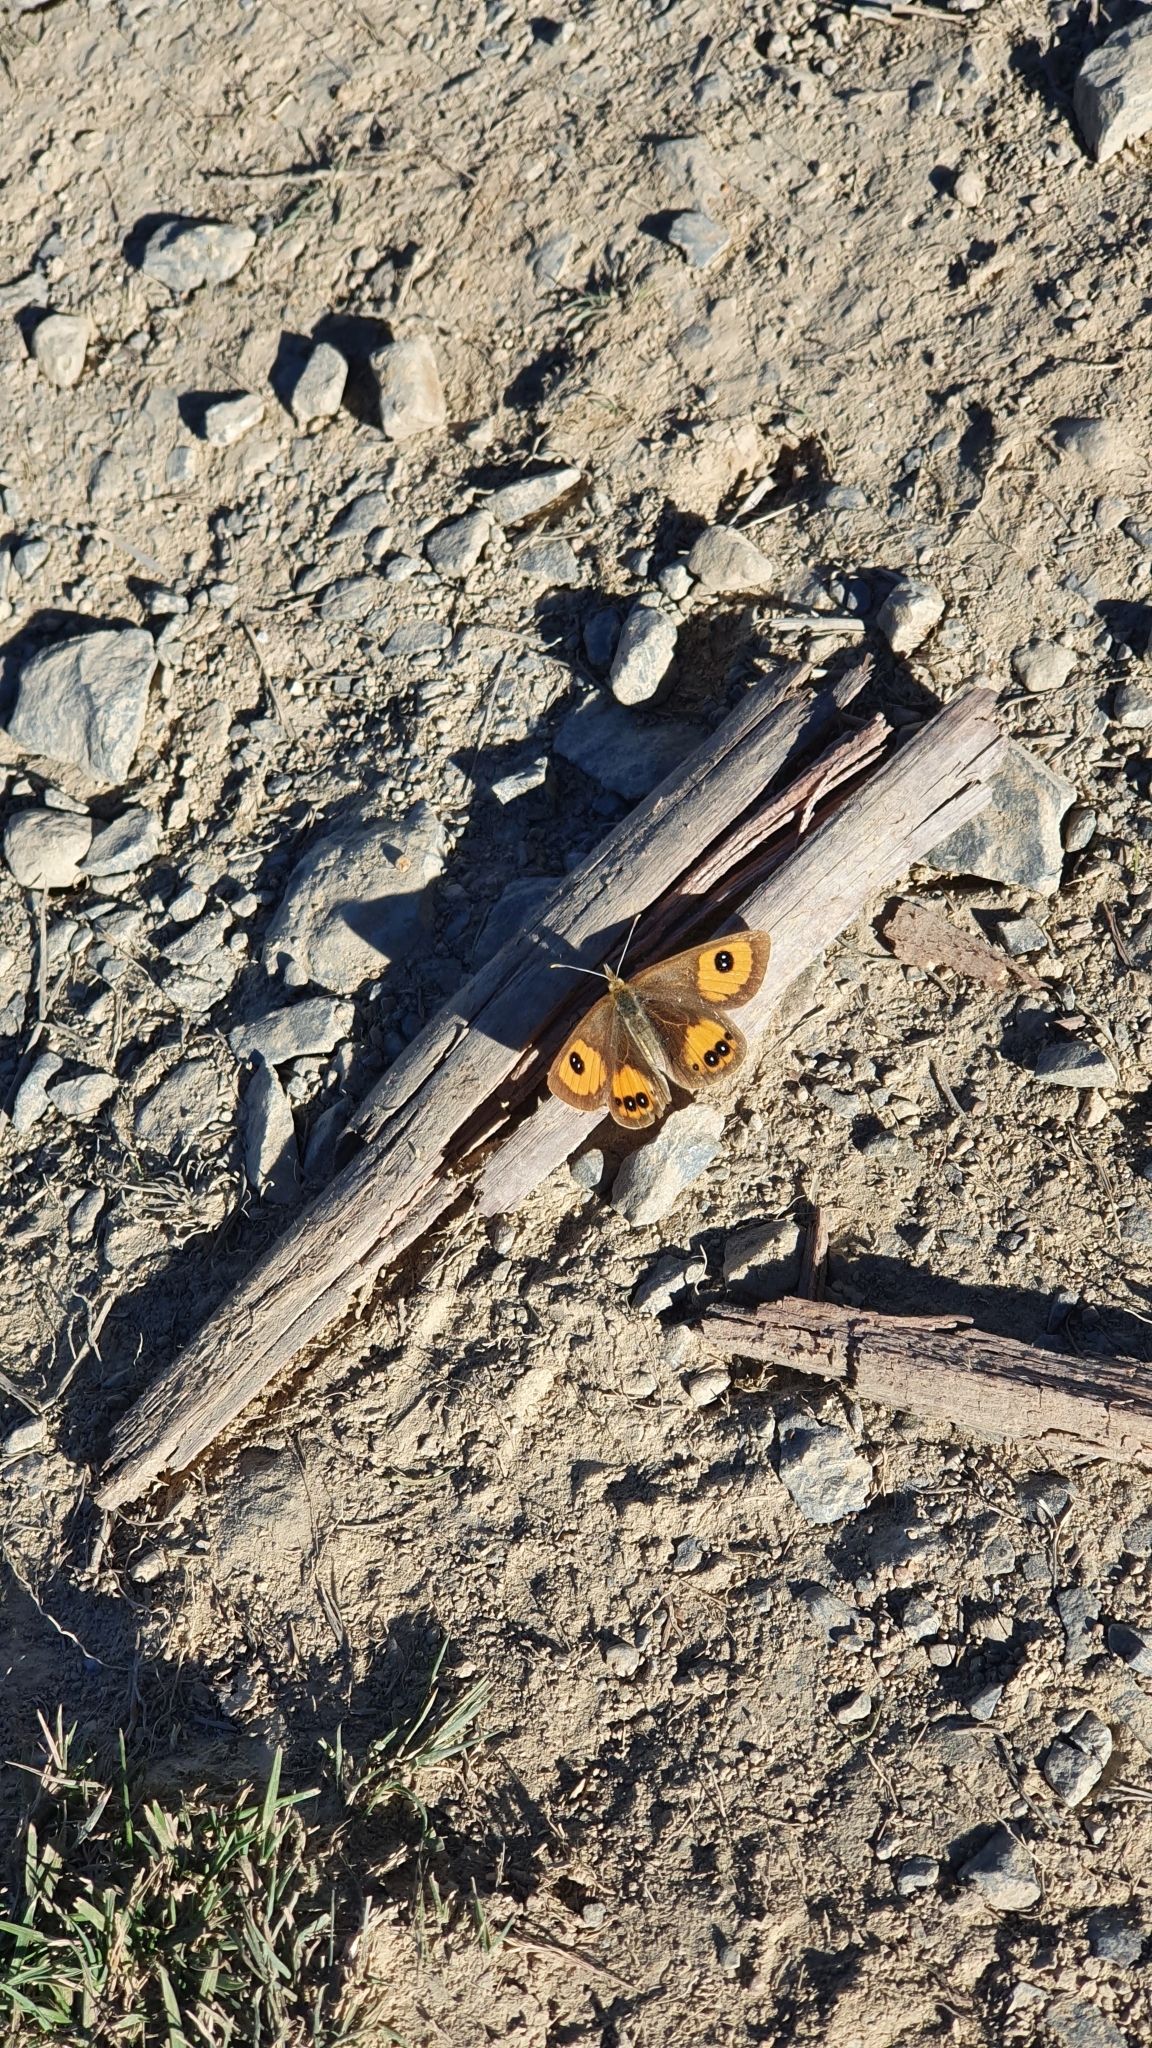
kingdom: Animalia
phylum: Arthropoda
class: Insecta
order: Lepidoptera
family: Nymphalidae
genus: Argyrophenga
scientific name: Argyrophenga janitae
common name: Janita's tussock
